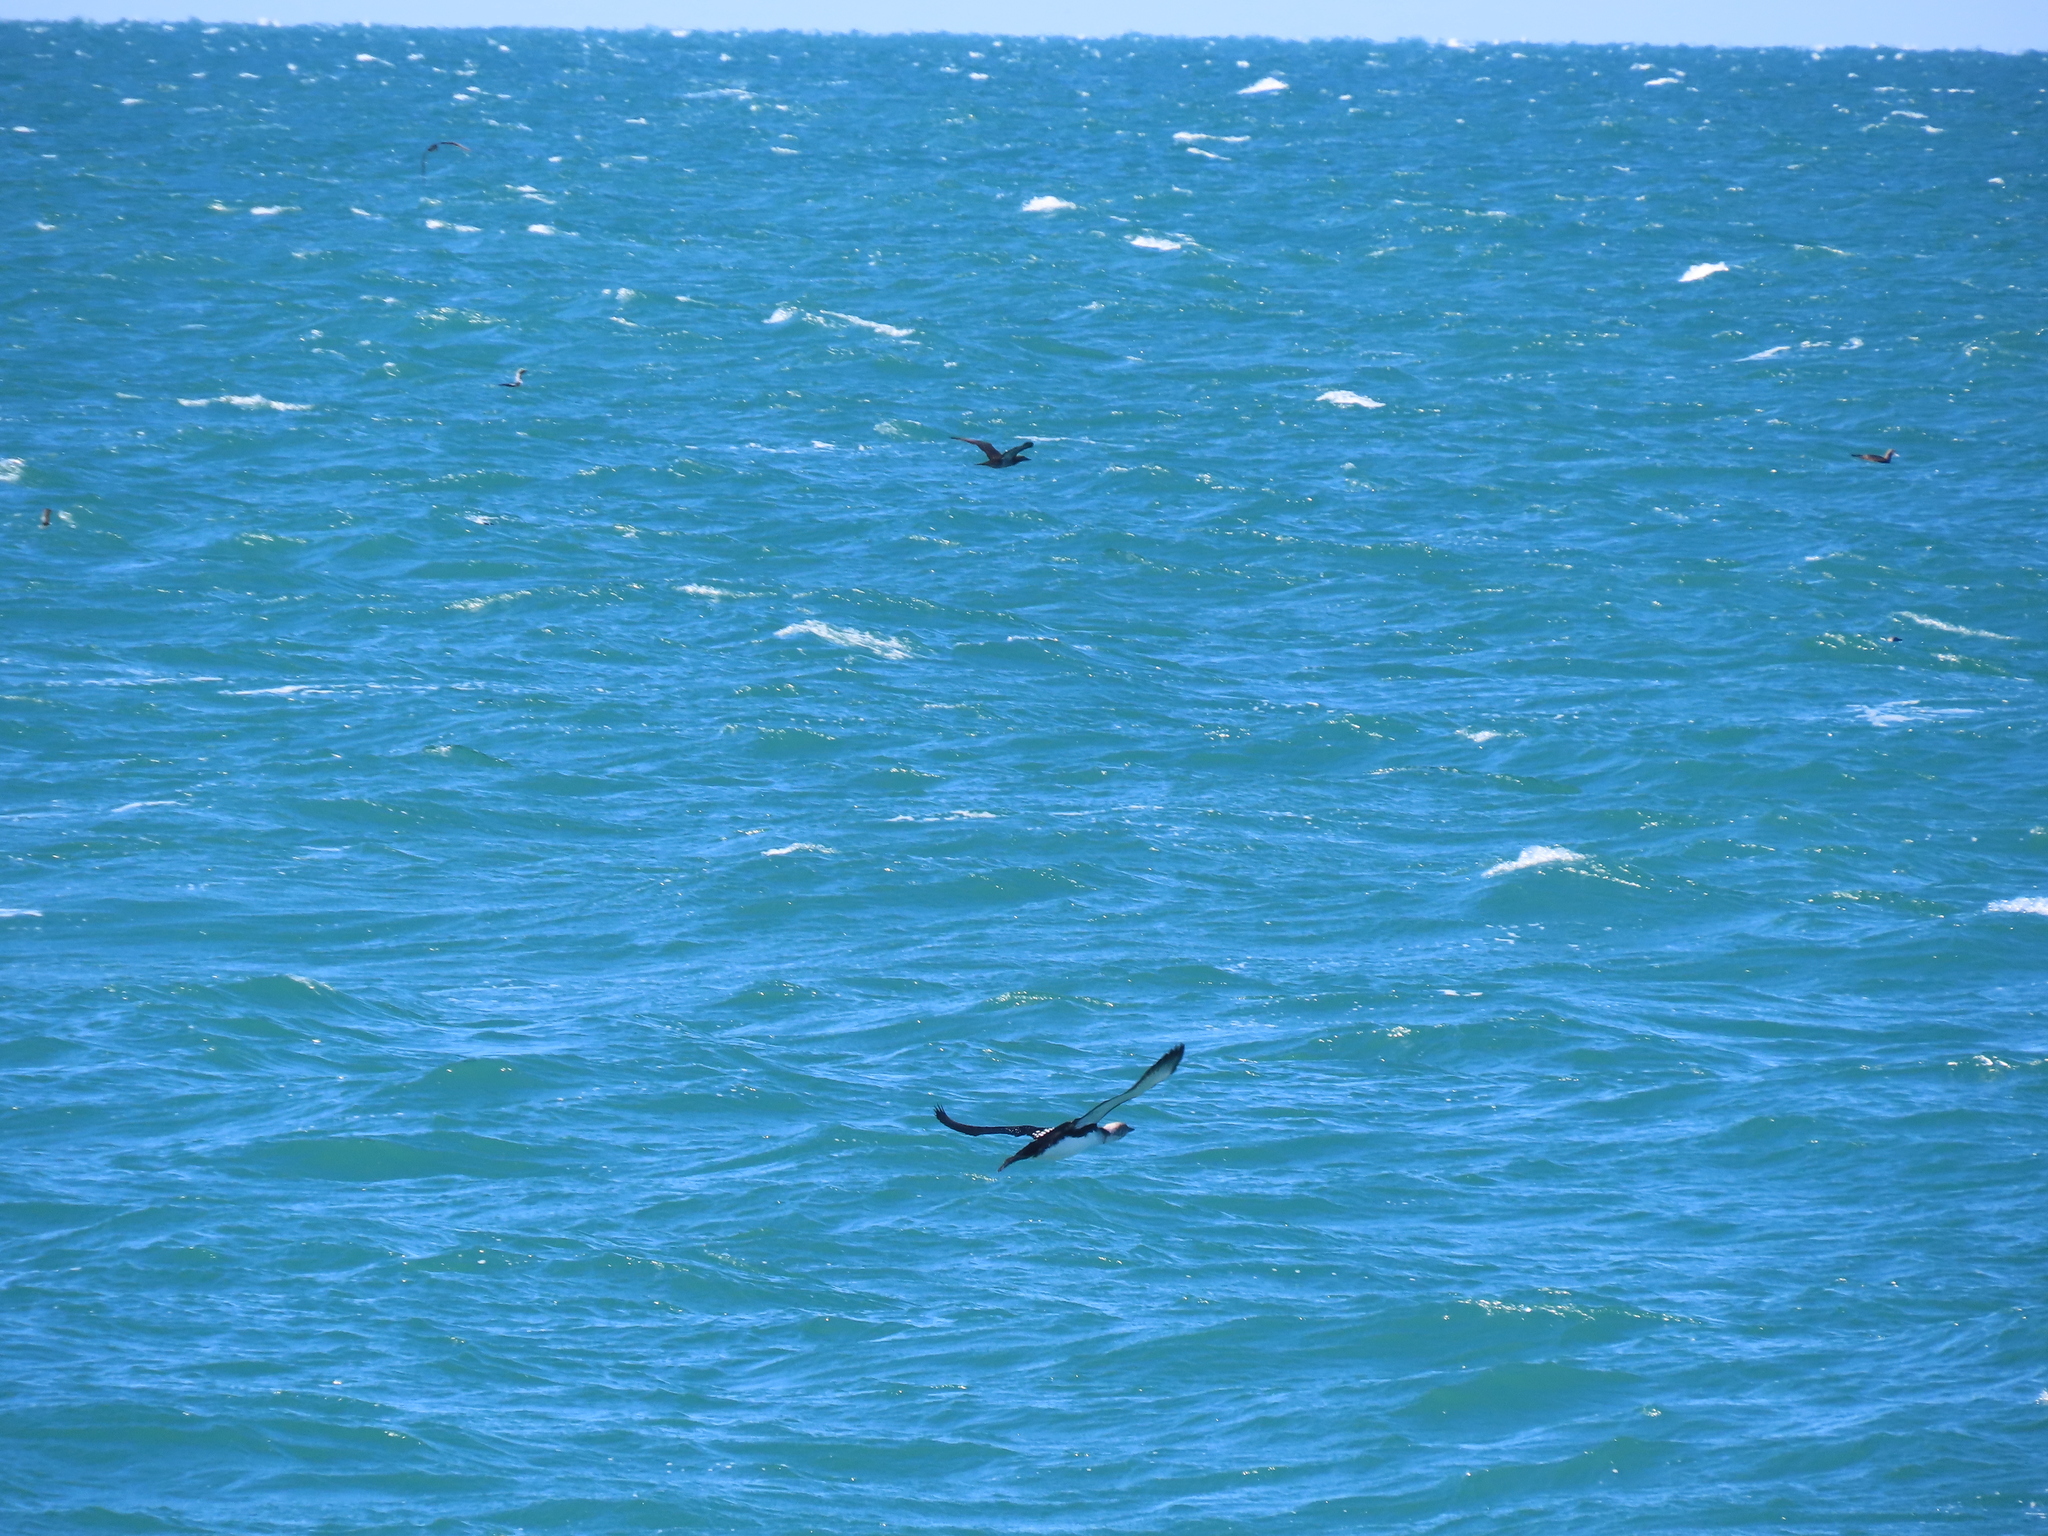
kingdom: Animalia
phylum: Chordata
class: Aves
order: Gaviiformes
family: Gaviidae
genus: Gavia
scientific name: Gavia pacifica
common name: Pacific loon
